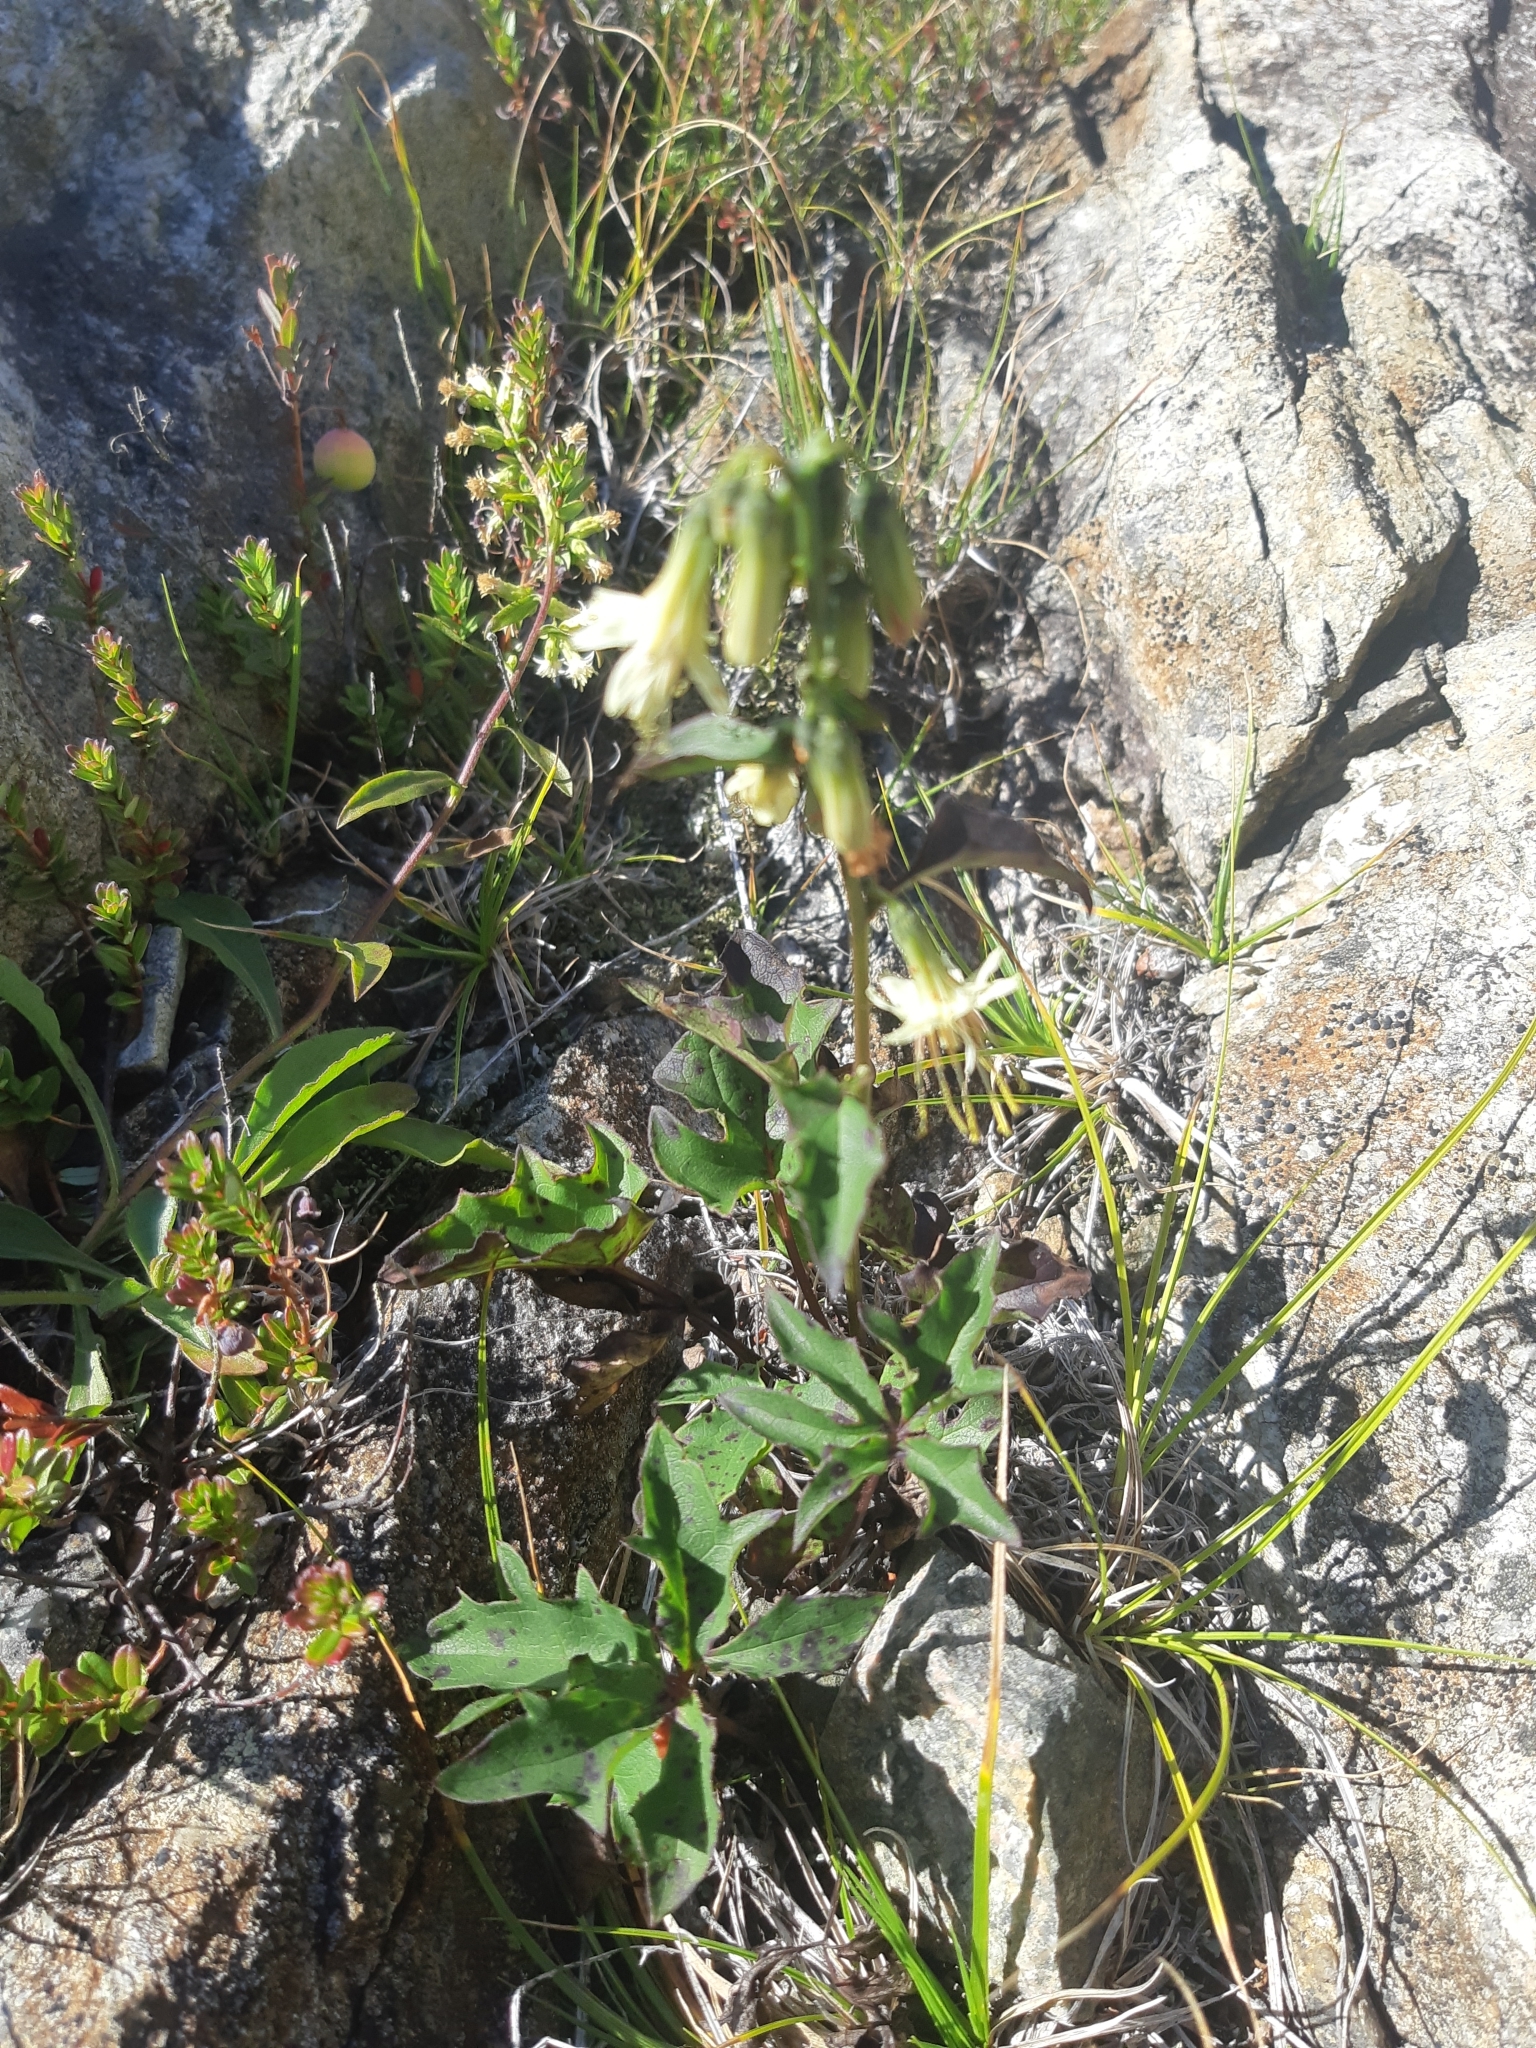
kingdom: Plantae
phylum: Tracheophyta
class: Magnoliopsida
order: Asterales
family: Asteraceae
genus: Nabalus
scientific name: Nabalus trifoliolatus
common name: Gall-of-the-earth
